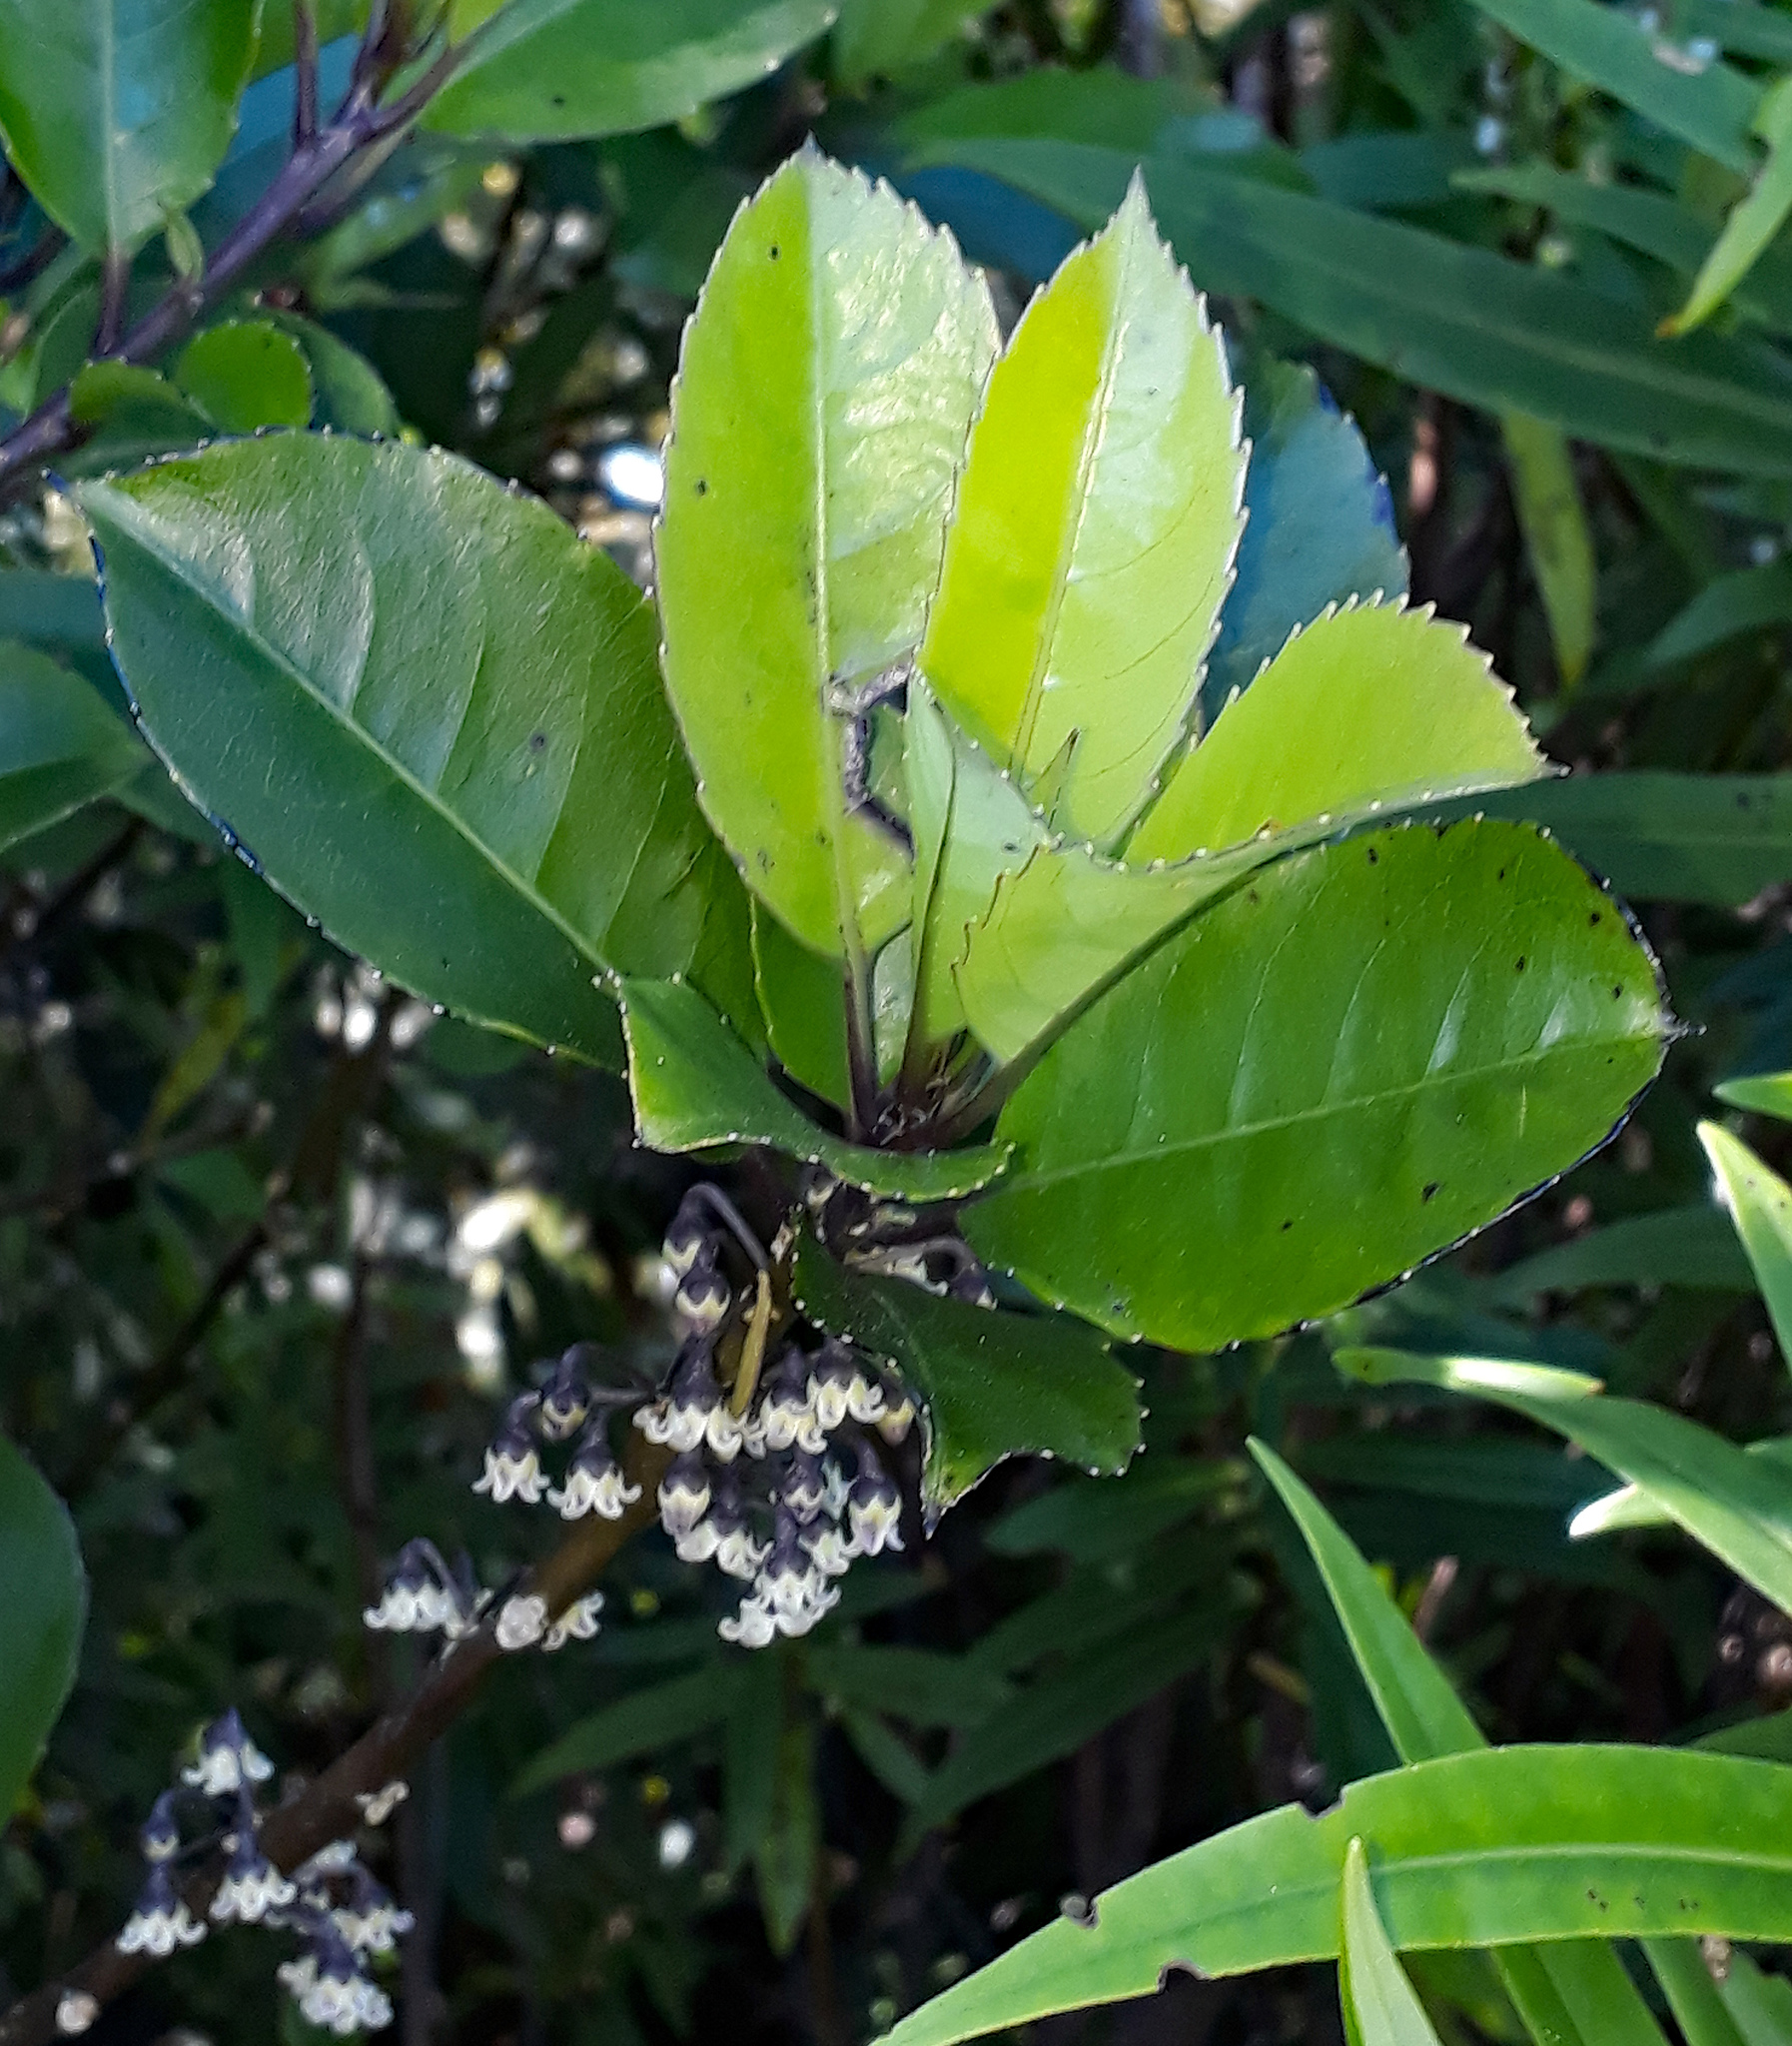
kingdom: Plantae
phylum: Tracheophyta
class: Magnoliopsida
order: Malpighiales
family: Violaceae
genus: Melicytus
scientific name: Melicytus macrophyllus
